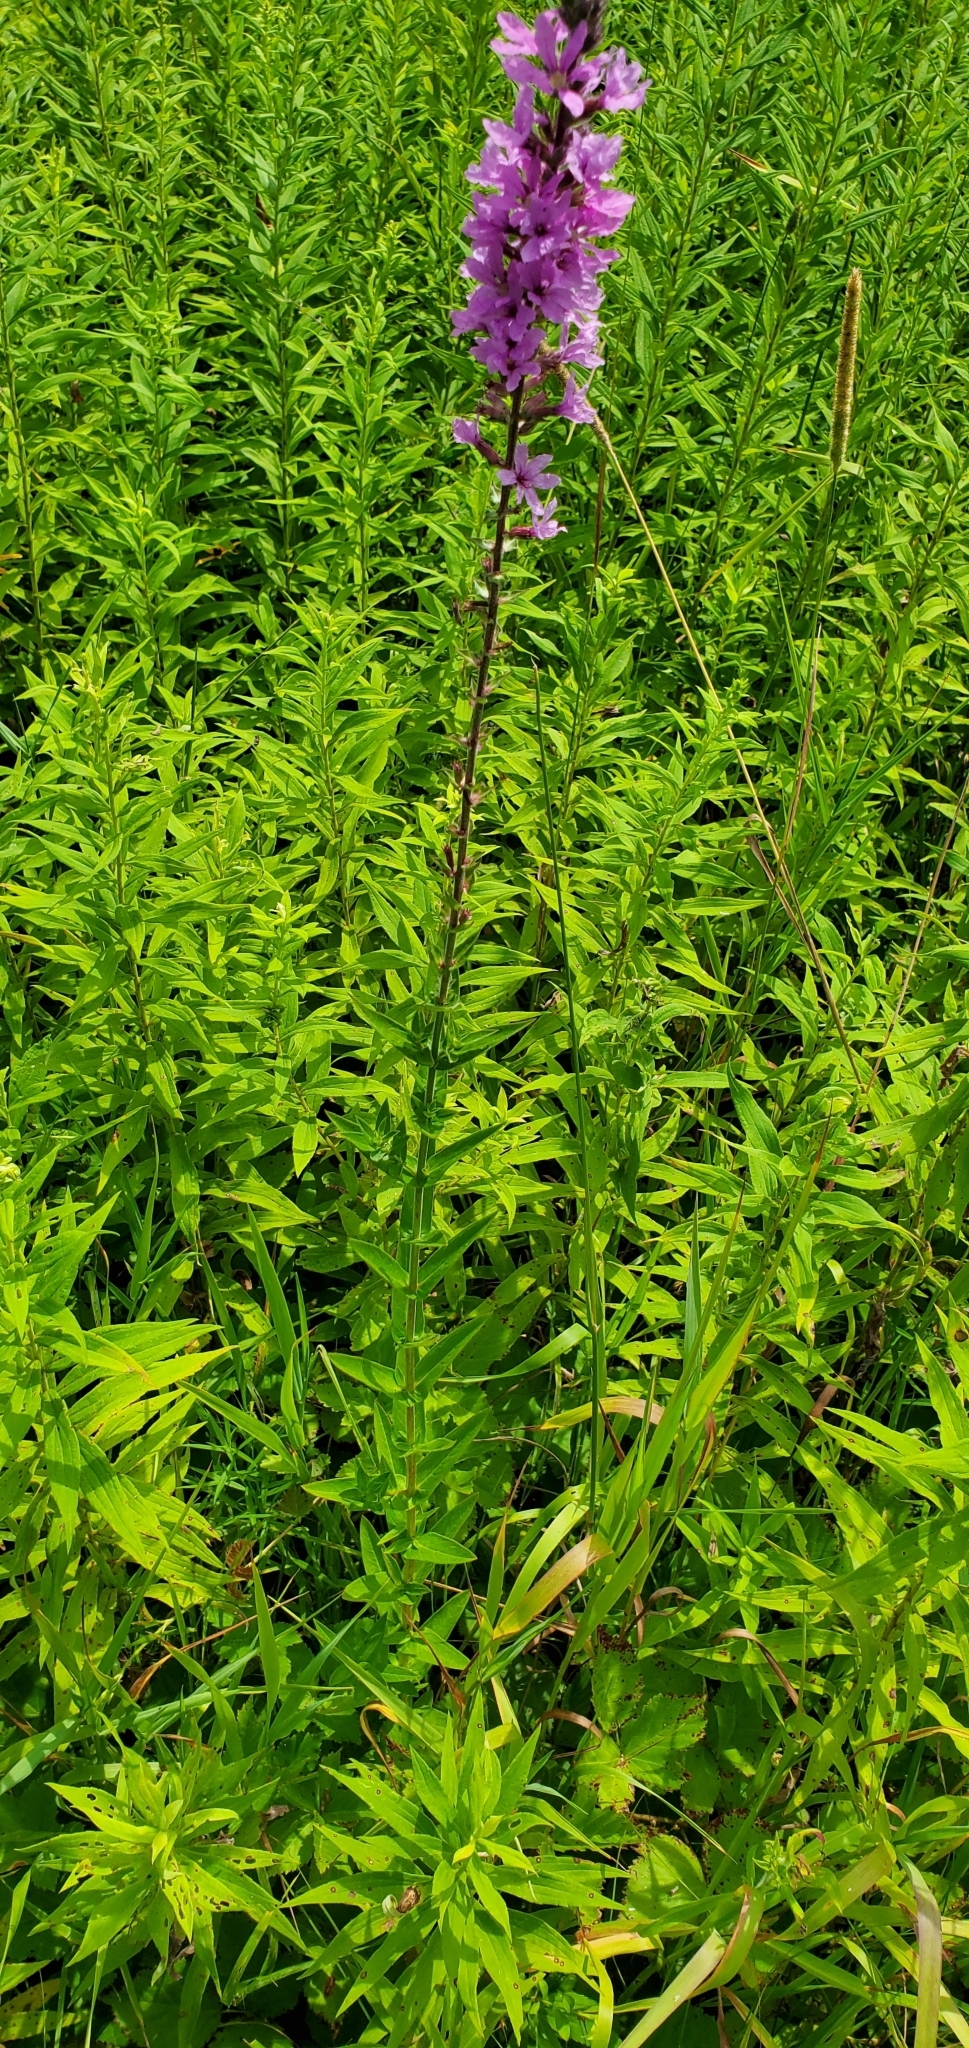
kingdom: Plantae
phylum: Tracheophyta
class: Magnoliopsida
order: Myrtales
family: Lythraceae
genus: Lythrum
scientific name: Lythrum salicaria
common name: Purple loosestrife
